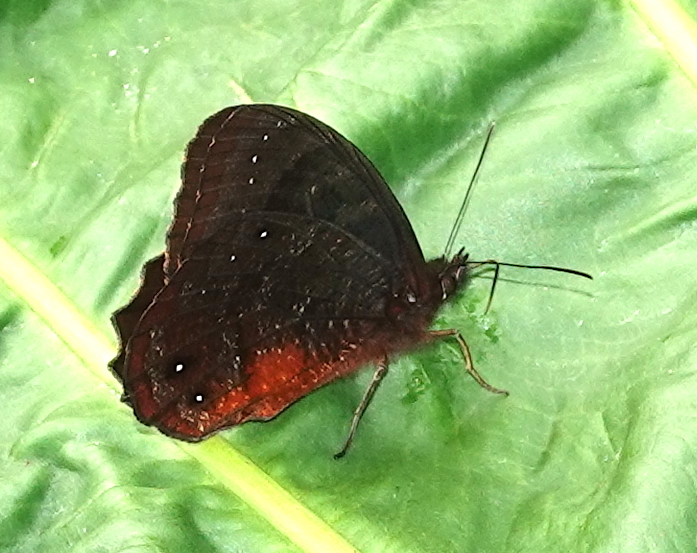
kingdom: Animalia
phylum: Arthropoda
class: Insecta
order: Lepidoptera
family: Nymphalidae
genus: Pedaliodes
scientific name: Pedaliodes
